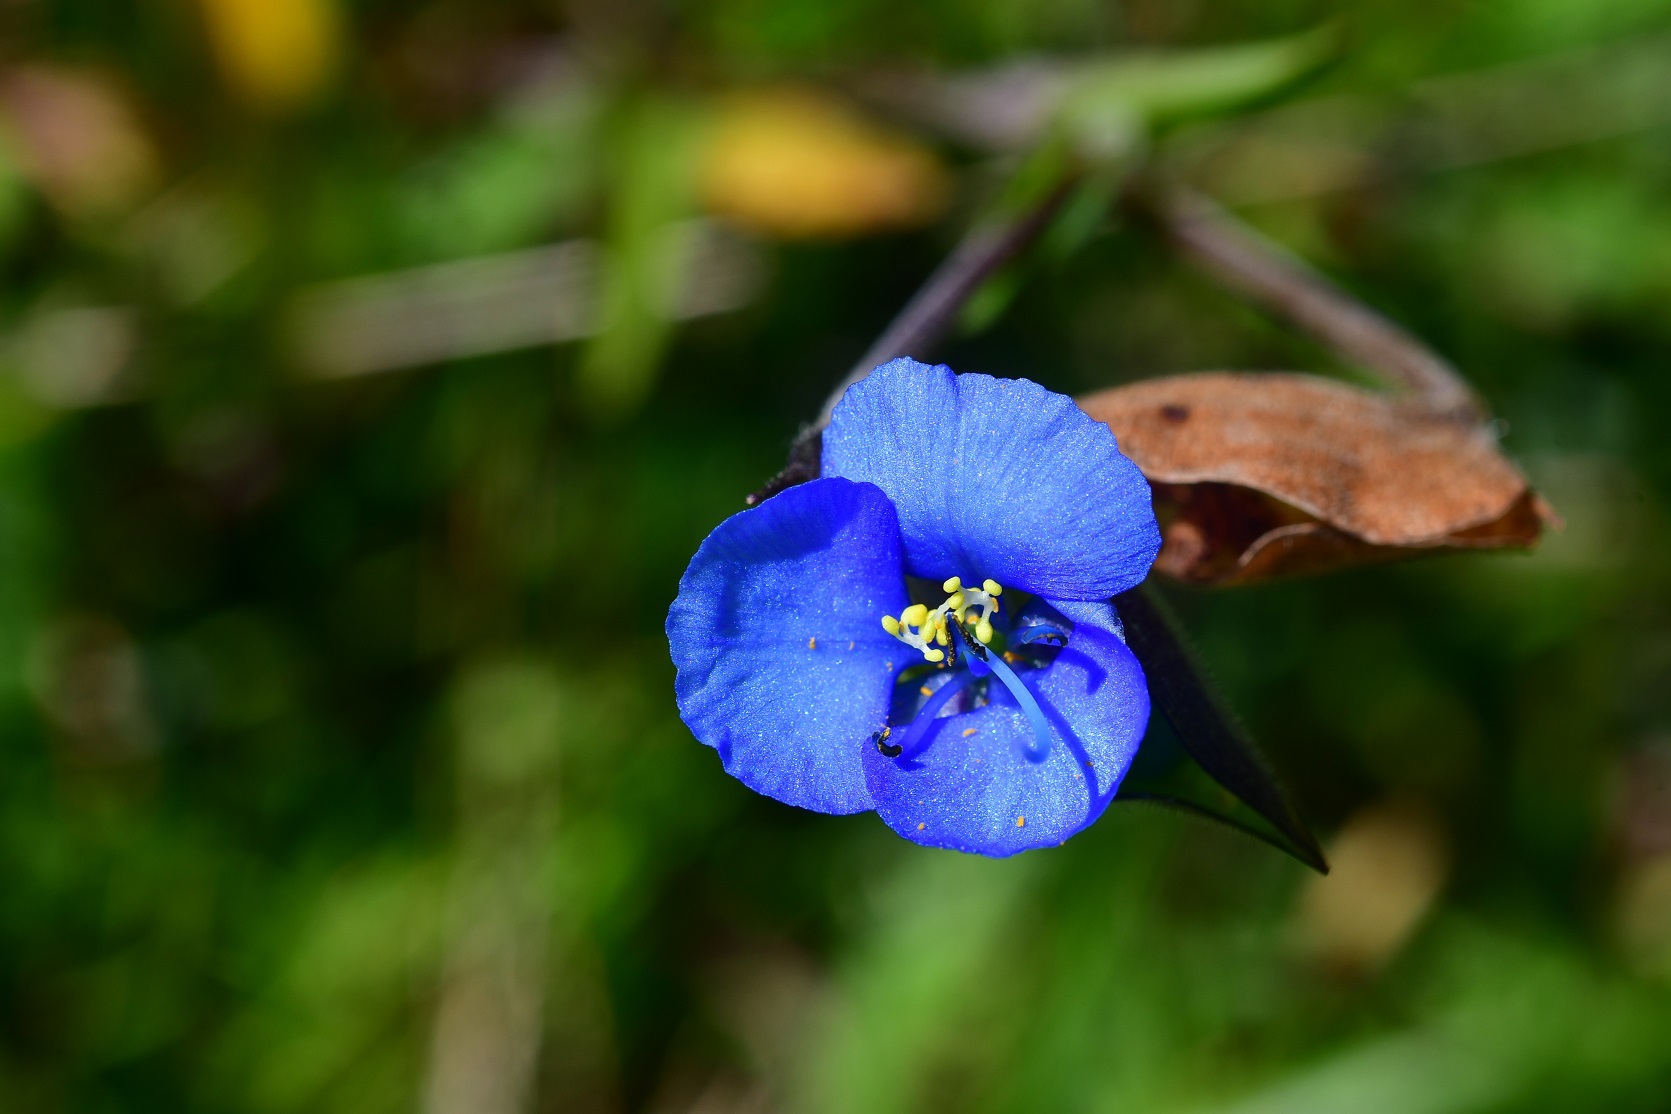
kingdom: Plantae
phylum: Tracheophyta
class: Liliopsida
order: Commelinales
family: Commelinaceae
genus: Commelina
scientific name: Commelina tuberosa
